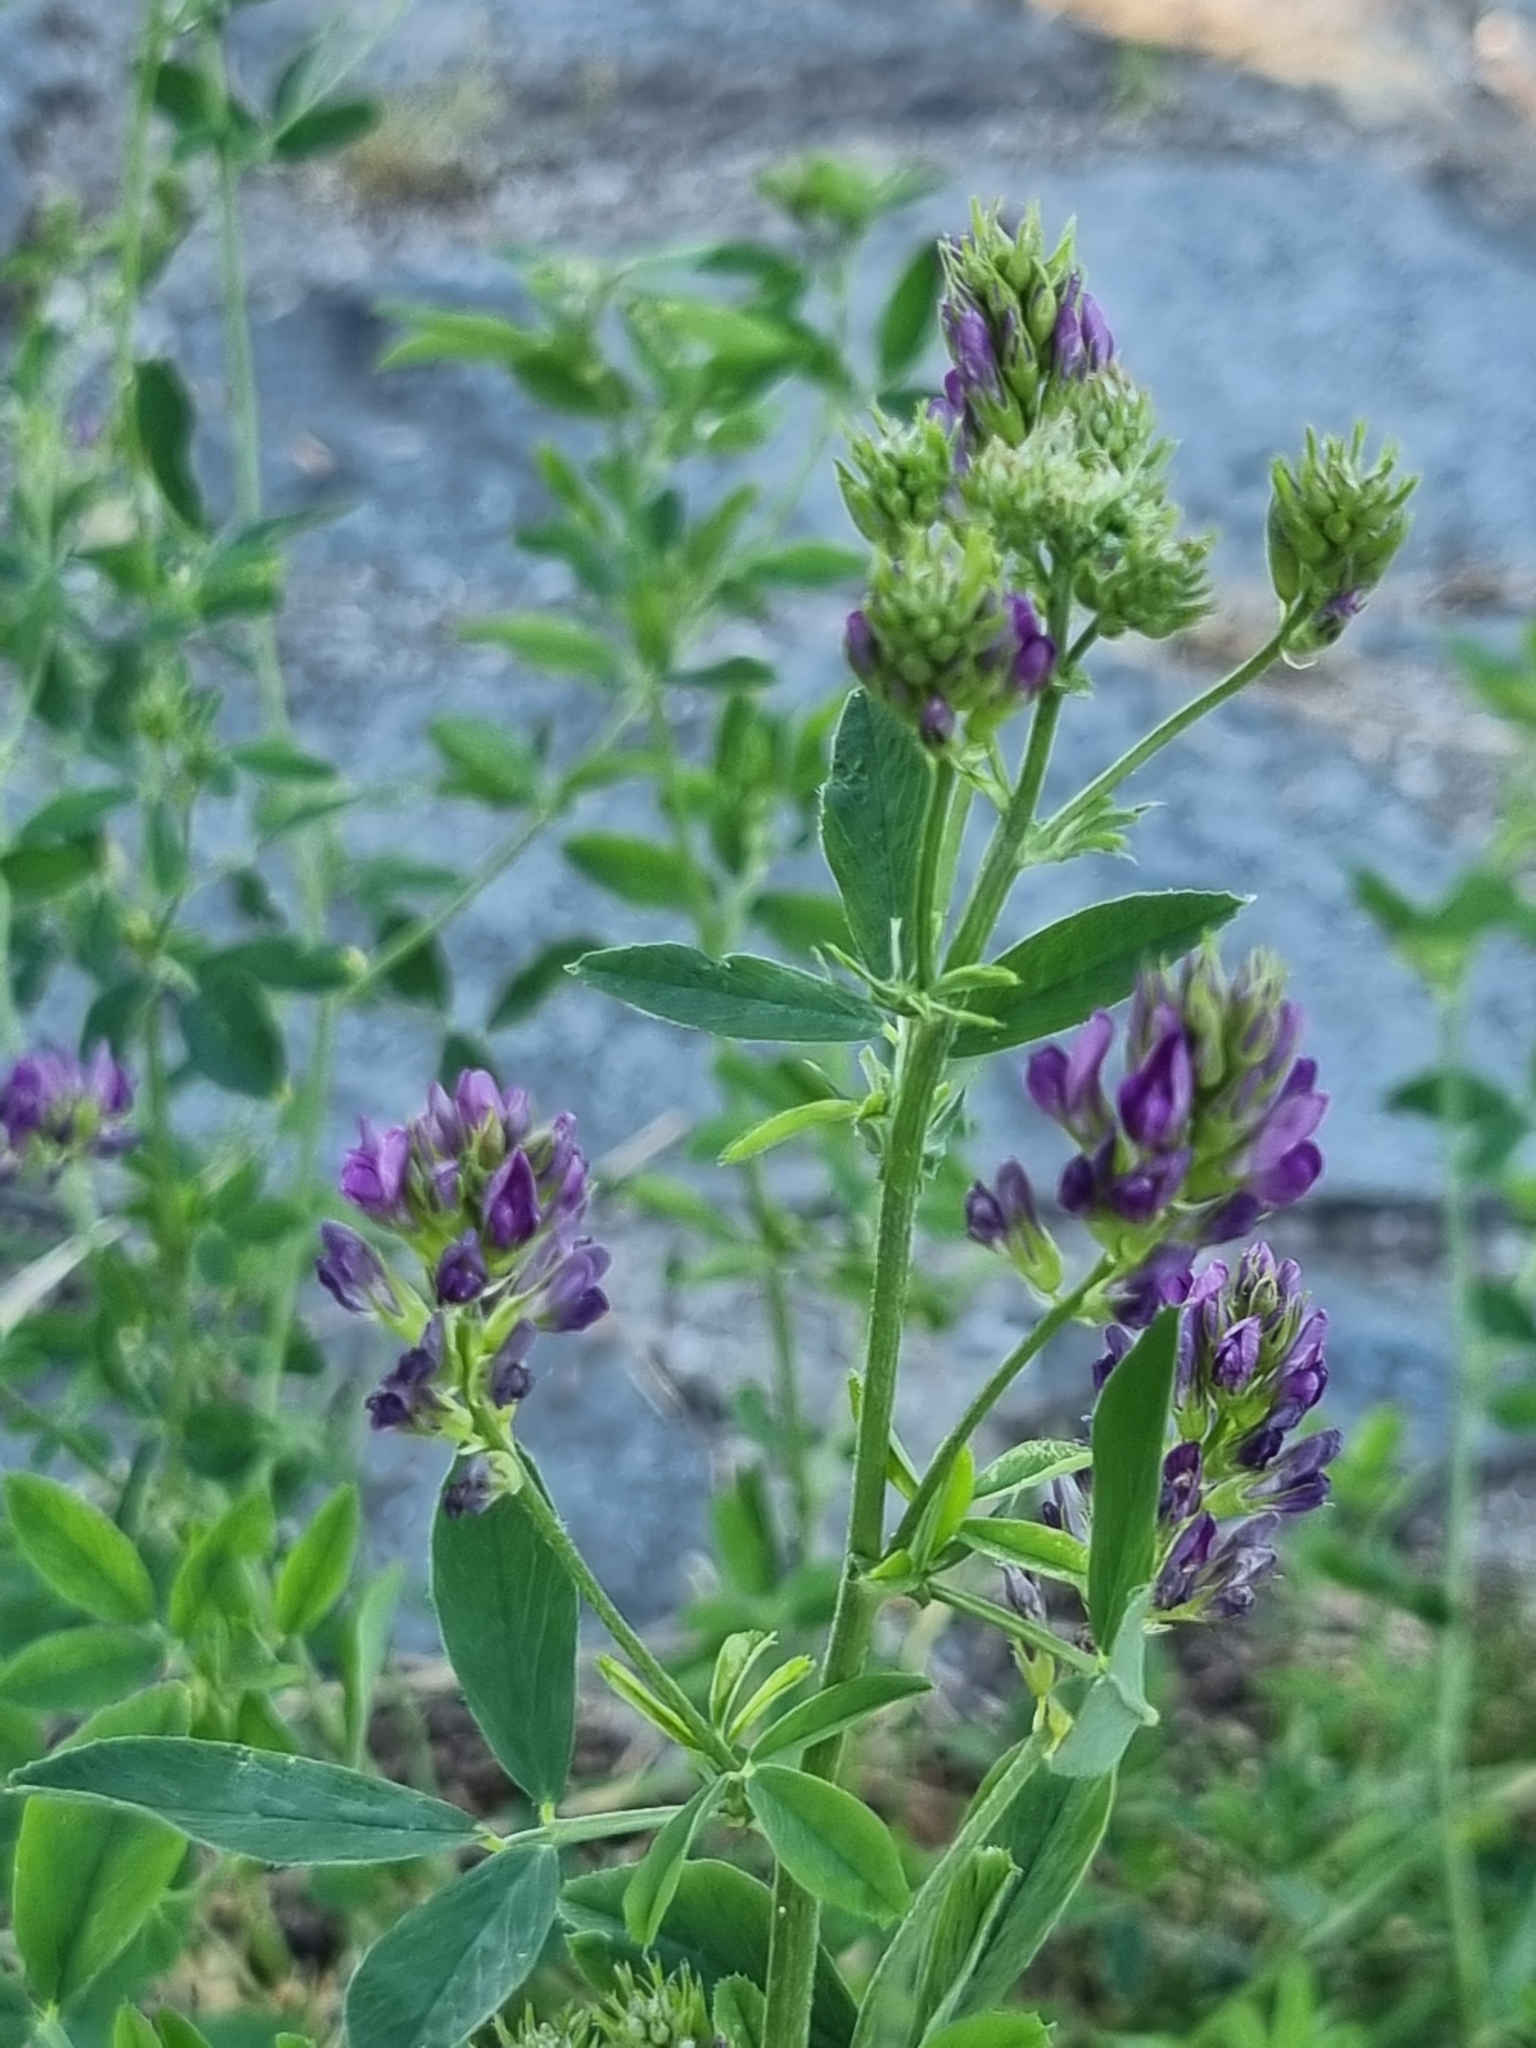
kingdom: Plantae
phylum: Tracheophyta
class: Magnoliopsida
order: Fabales
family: Fabaceae
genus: Medicago
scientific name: Medicago sativa
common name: Alfalfa
